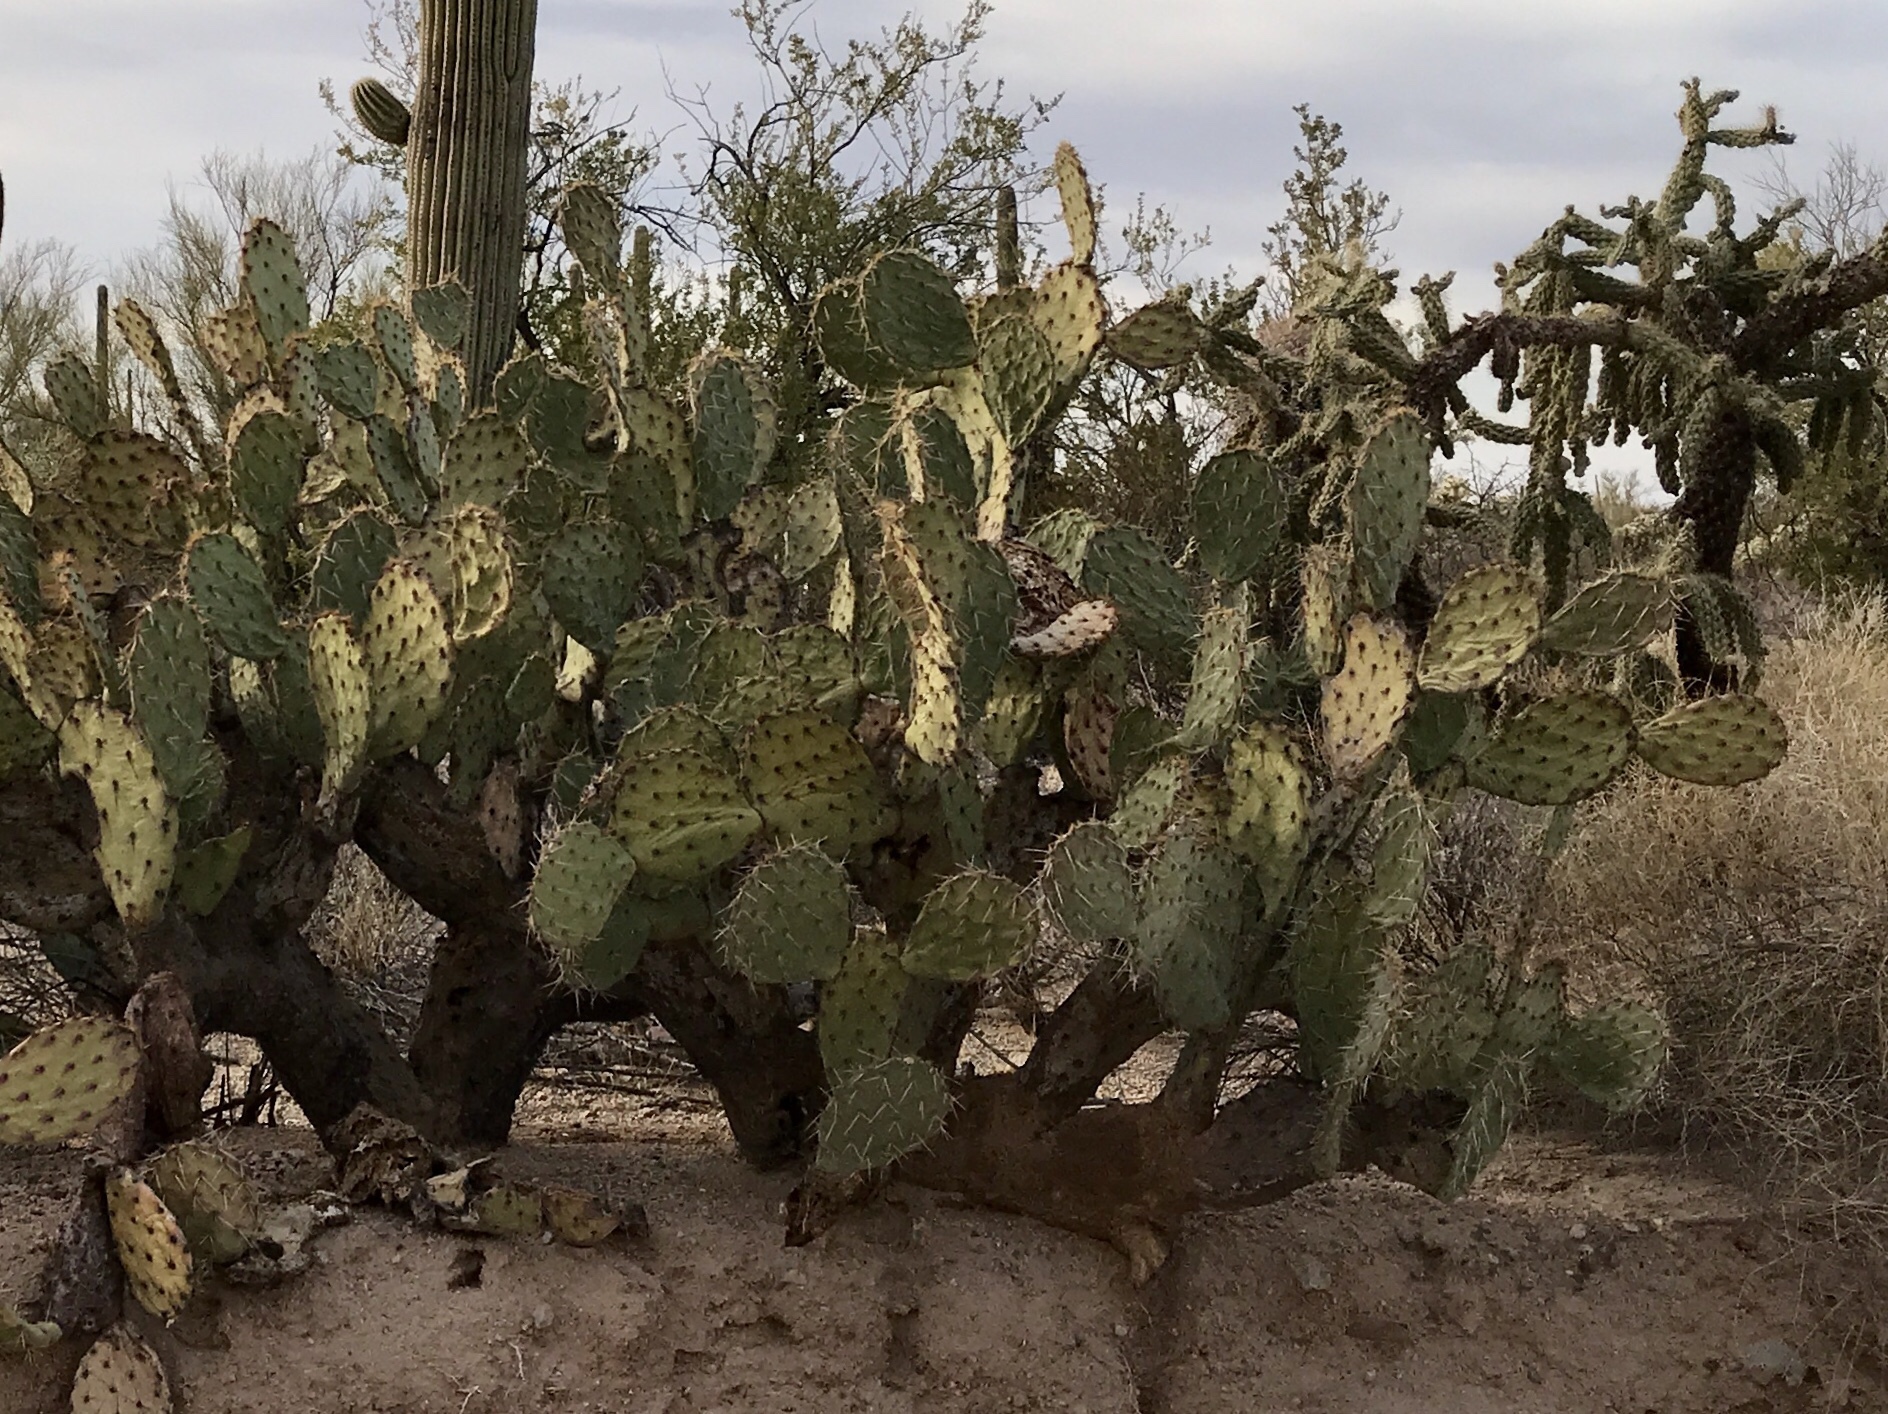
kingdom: Plantae
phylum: Tracheophyta
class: Magnoliopsida
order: Caryophyllales
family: Cactaceae
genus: Opuntia
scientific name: Opuntia engelmannii
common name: Cactus-apple
